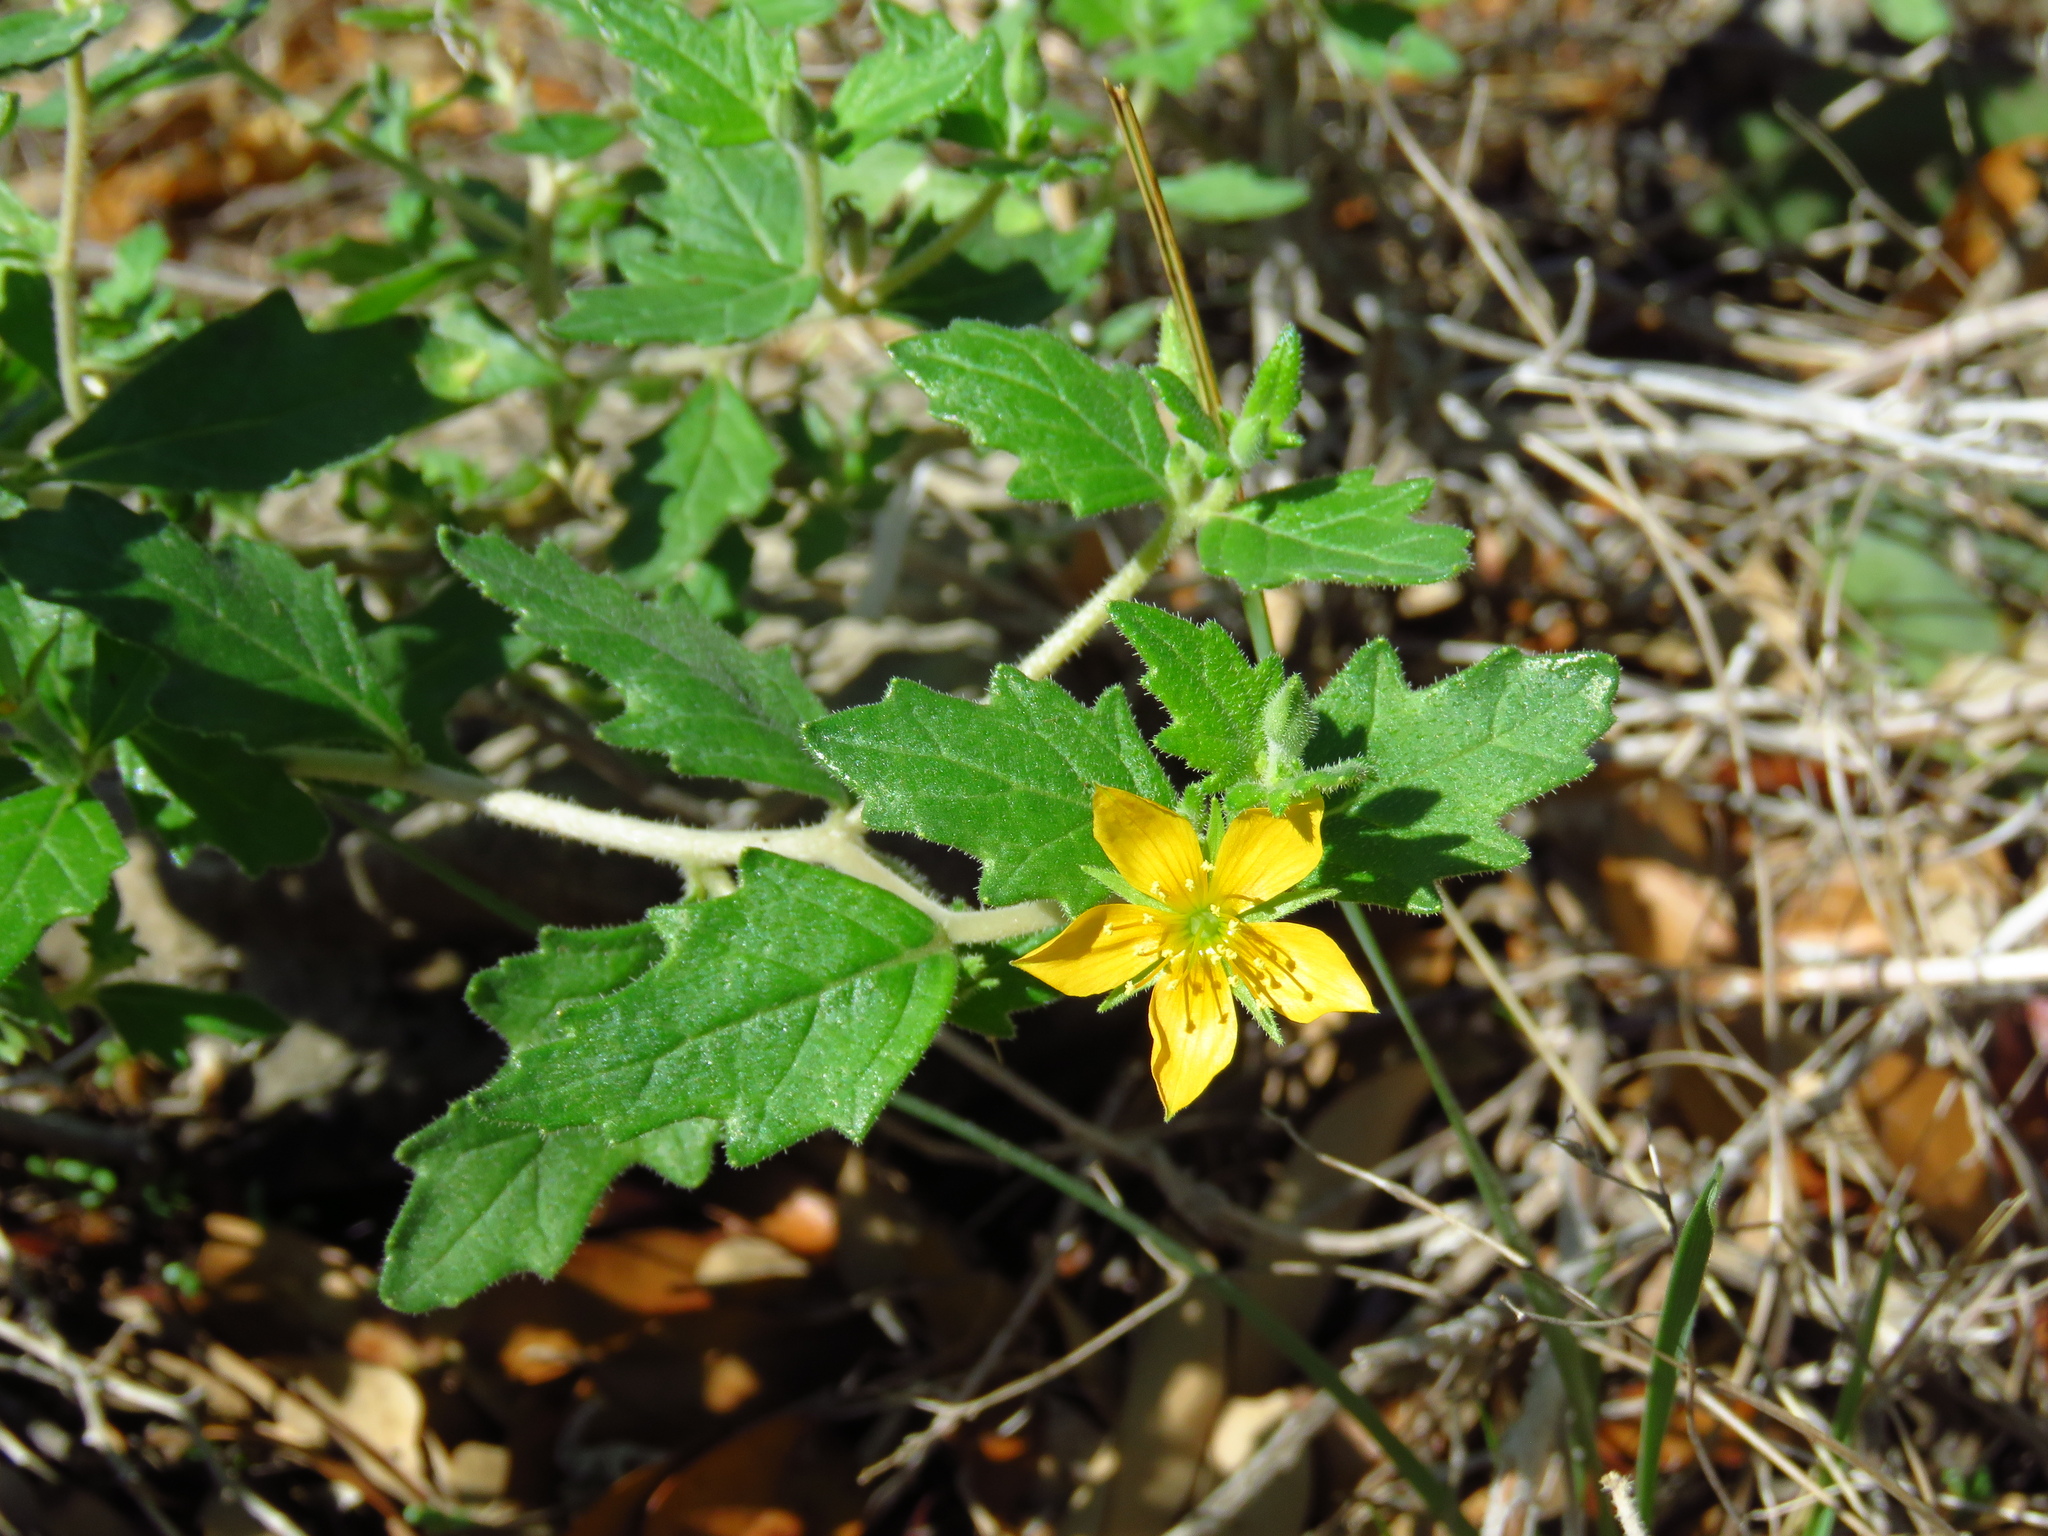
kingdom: Plantae
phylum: Tracheophyta
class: Magnoliopsida
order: Cornales
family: Loasaceae
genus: Mentzelia
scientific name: Mentzelia oligosperma
